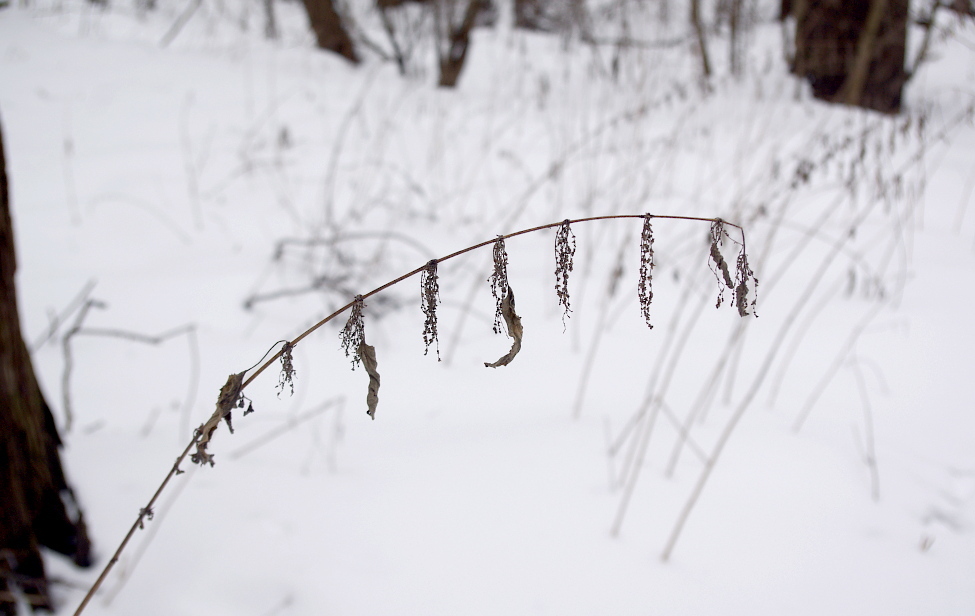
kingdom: Plantae
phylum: Tracheophyta
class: Magnoliopsida
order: Rosales
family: Urticaceae
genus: Urtica
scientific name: Urtica dioica
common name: Common nettle
